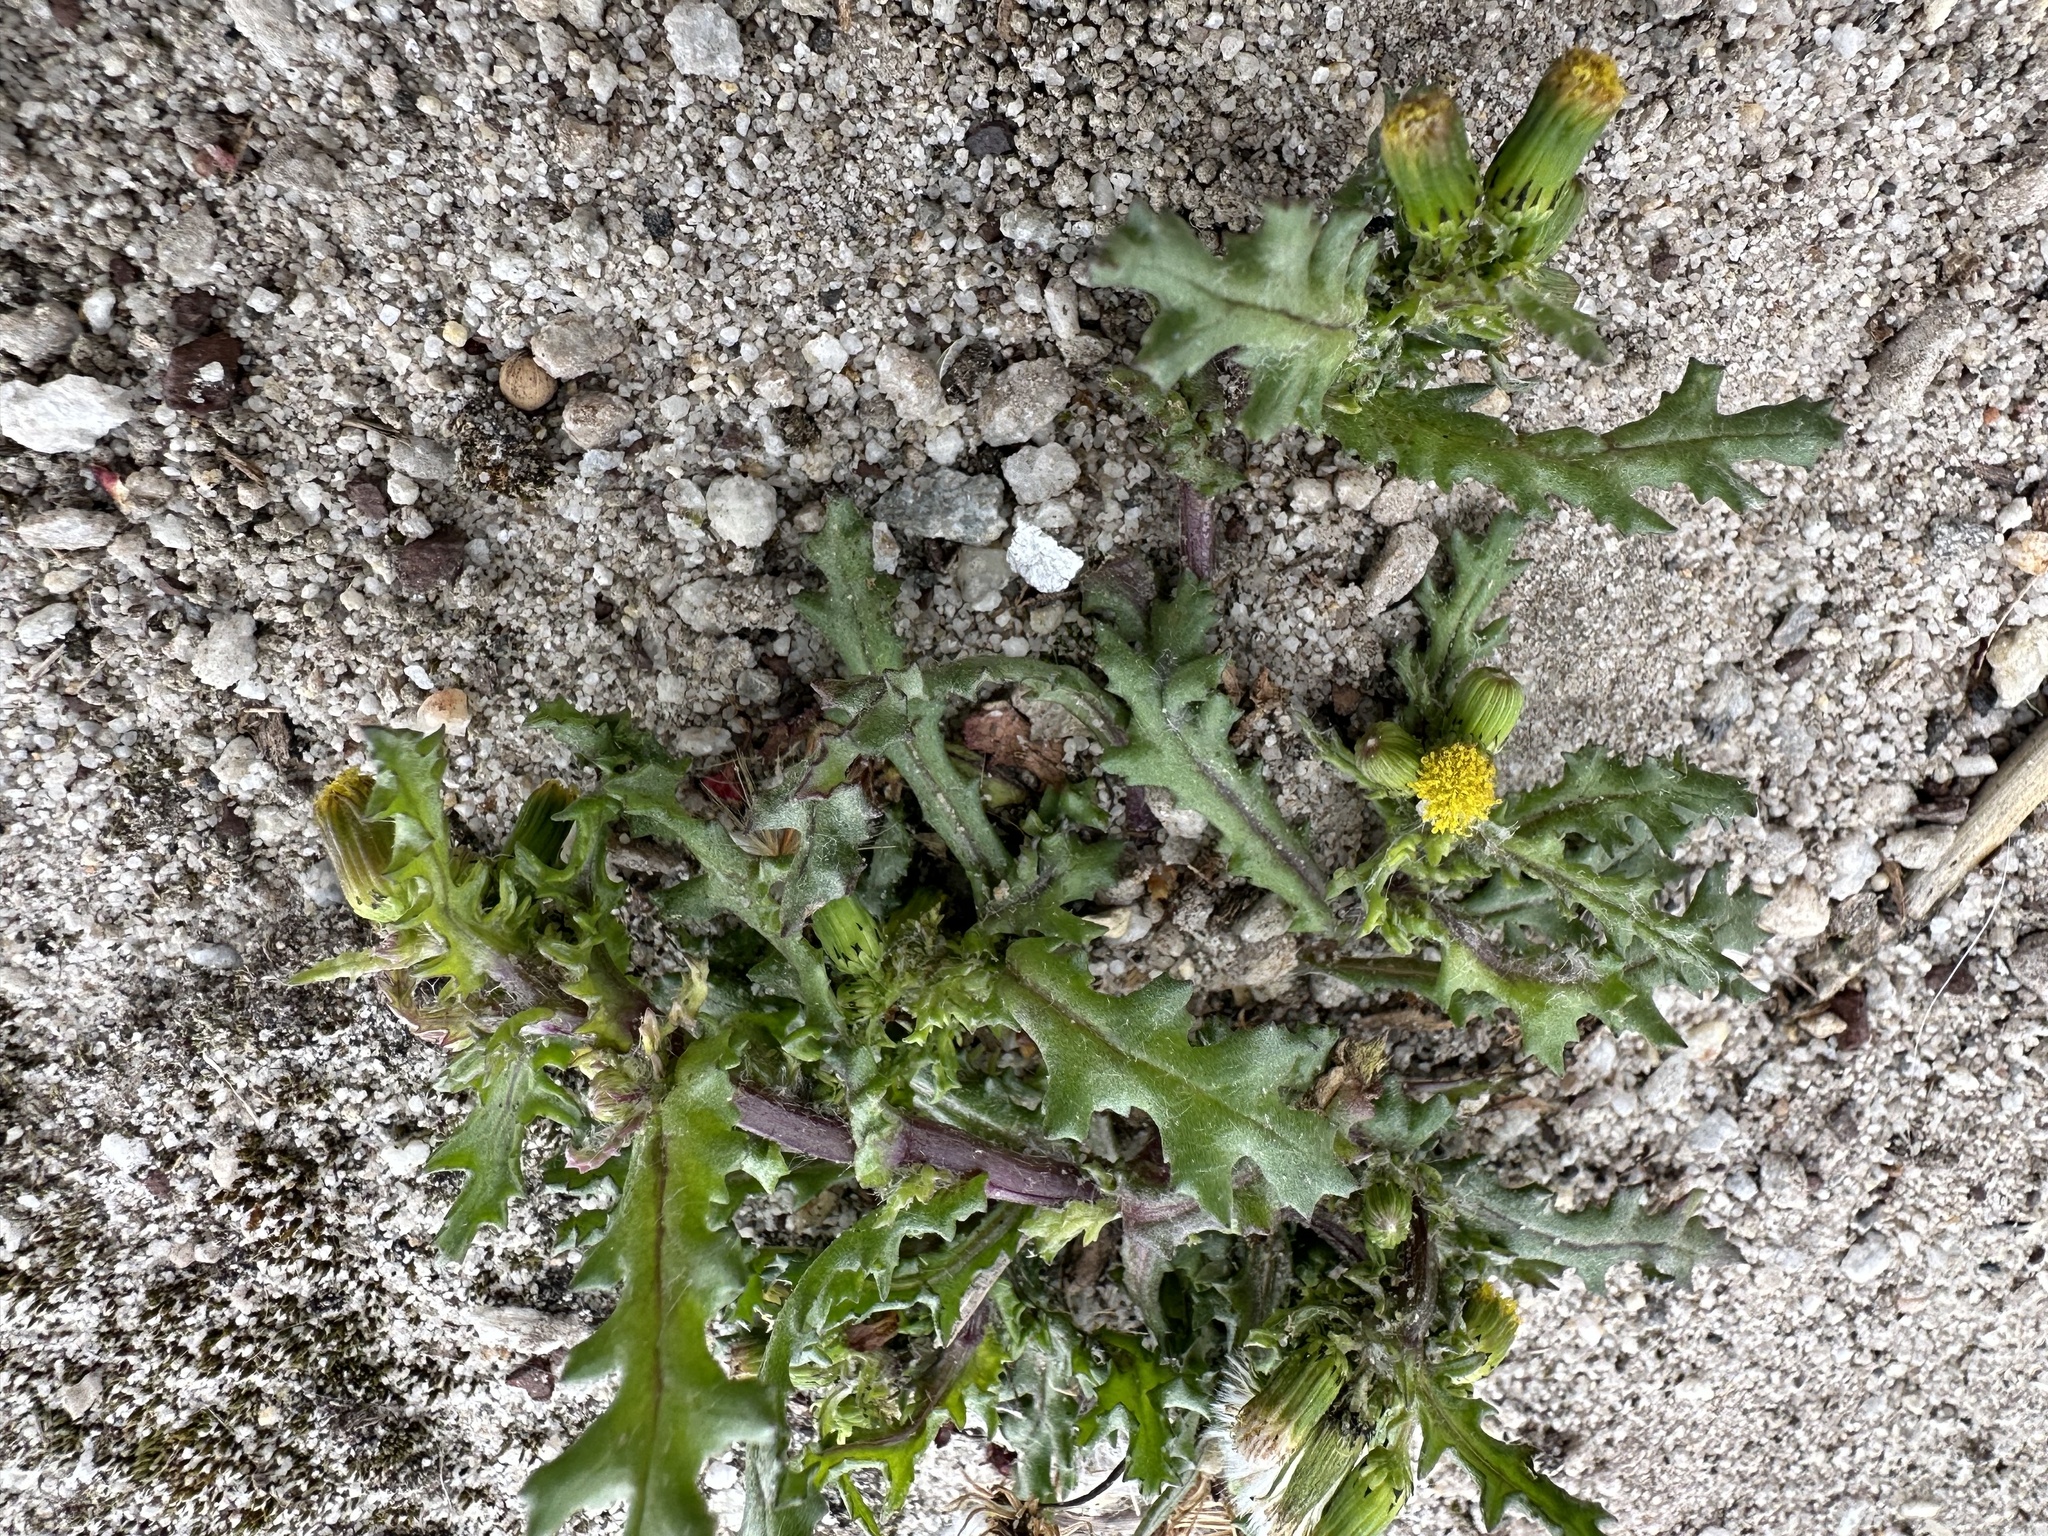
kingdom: Plantae
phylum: Tracheophyta
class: Magnoliopsida
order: Asterales
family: Asteraceae
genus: Senecio
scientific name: Senecio vulgaris
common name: Old-man-in-the-spring
